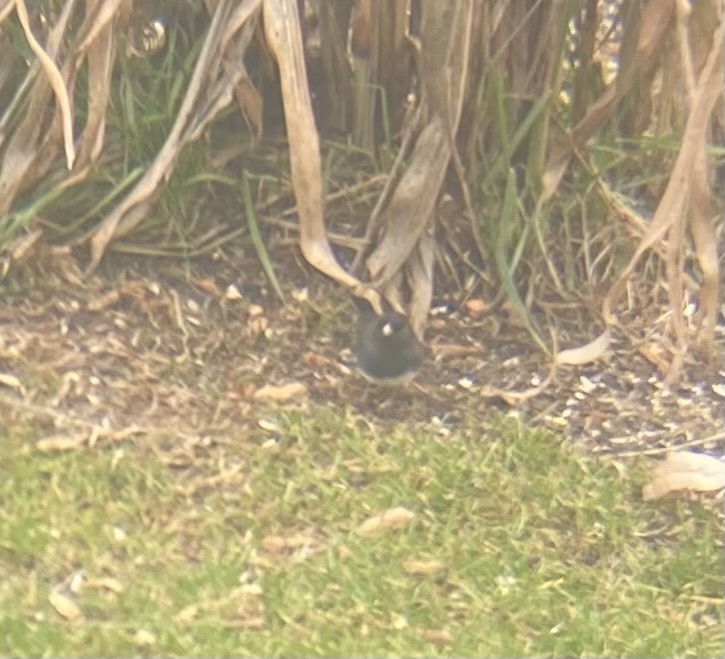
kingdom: Animalia
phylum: Chordata
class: Aves
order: Passeriformes
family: Passerellidae
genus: Junco
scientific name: Junco hyemalis
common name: Dark-eyed junco
